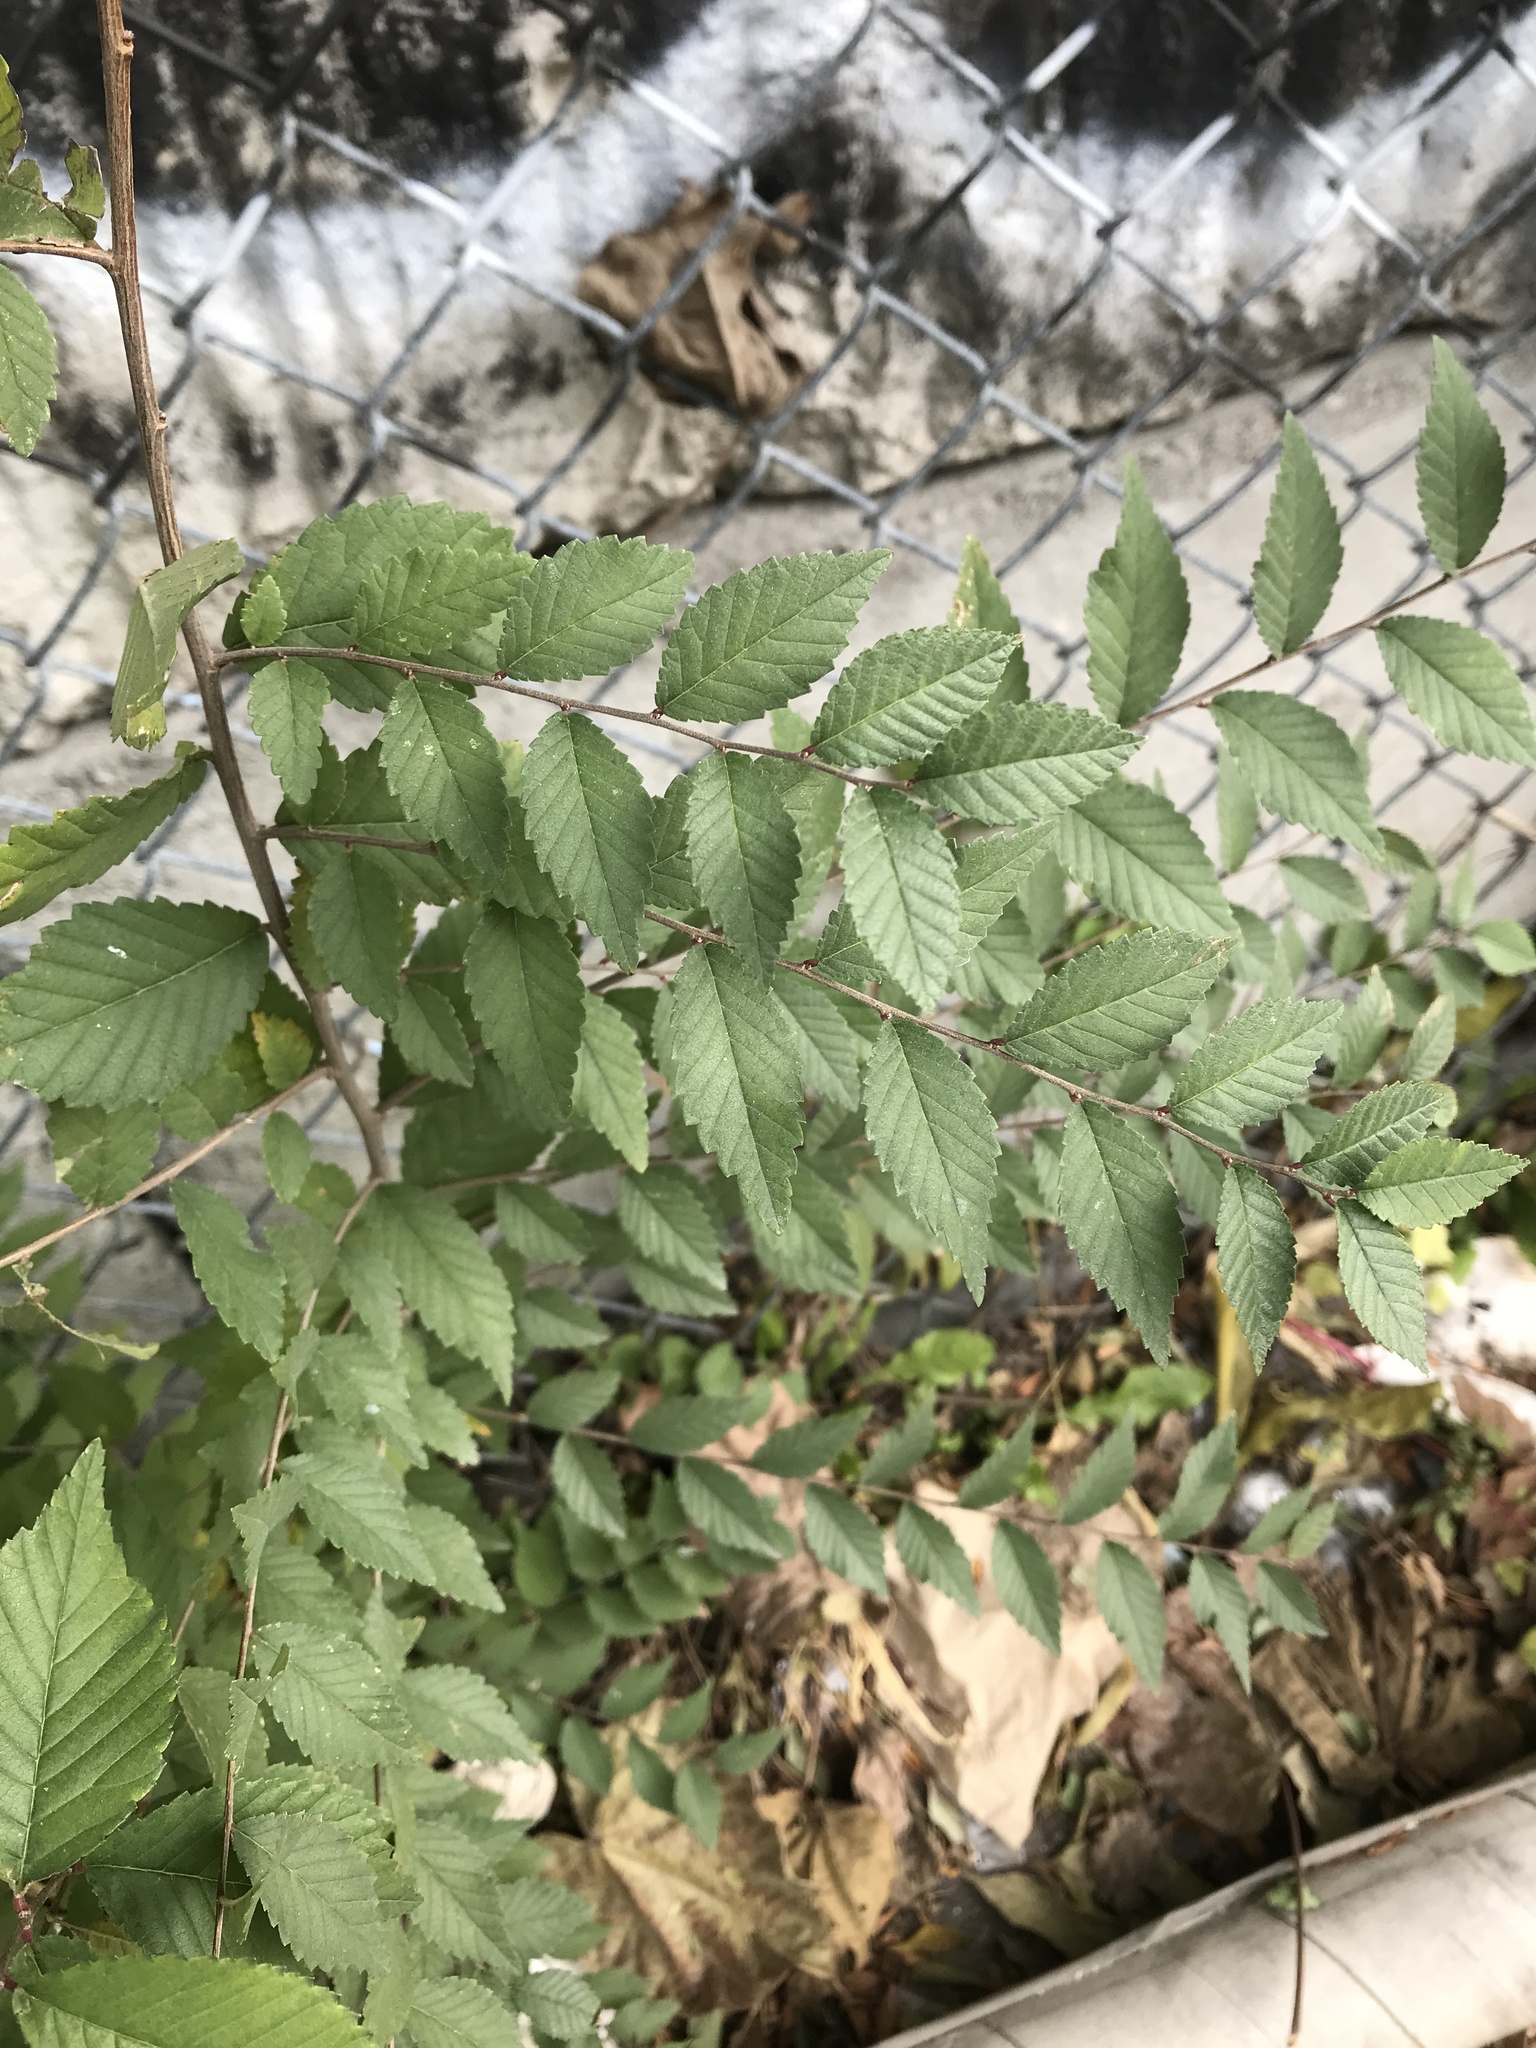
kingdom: Plantae
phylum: Tracheophyta
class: Magnoliopsida
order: Rosales
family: Ulmaceae
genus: Ulmus
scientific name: Ulmus pumila
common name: Siberian elm
